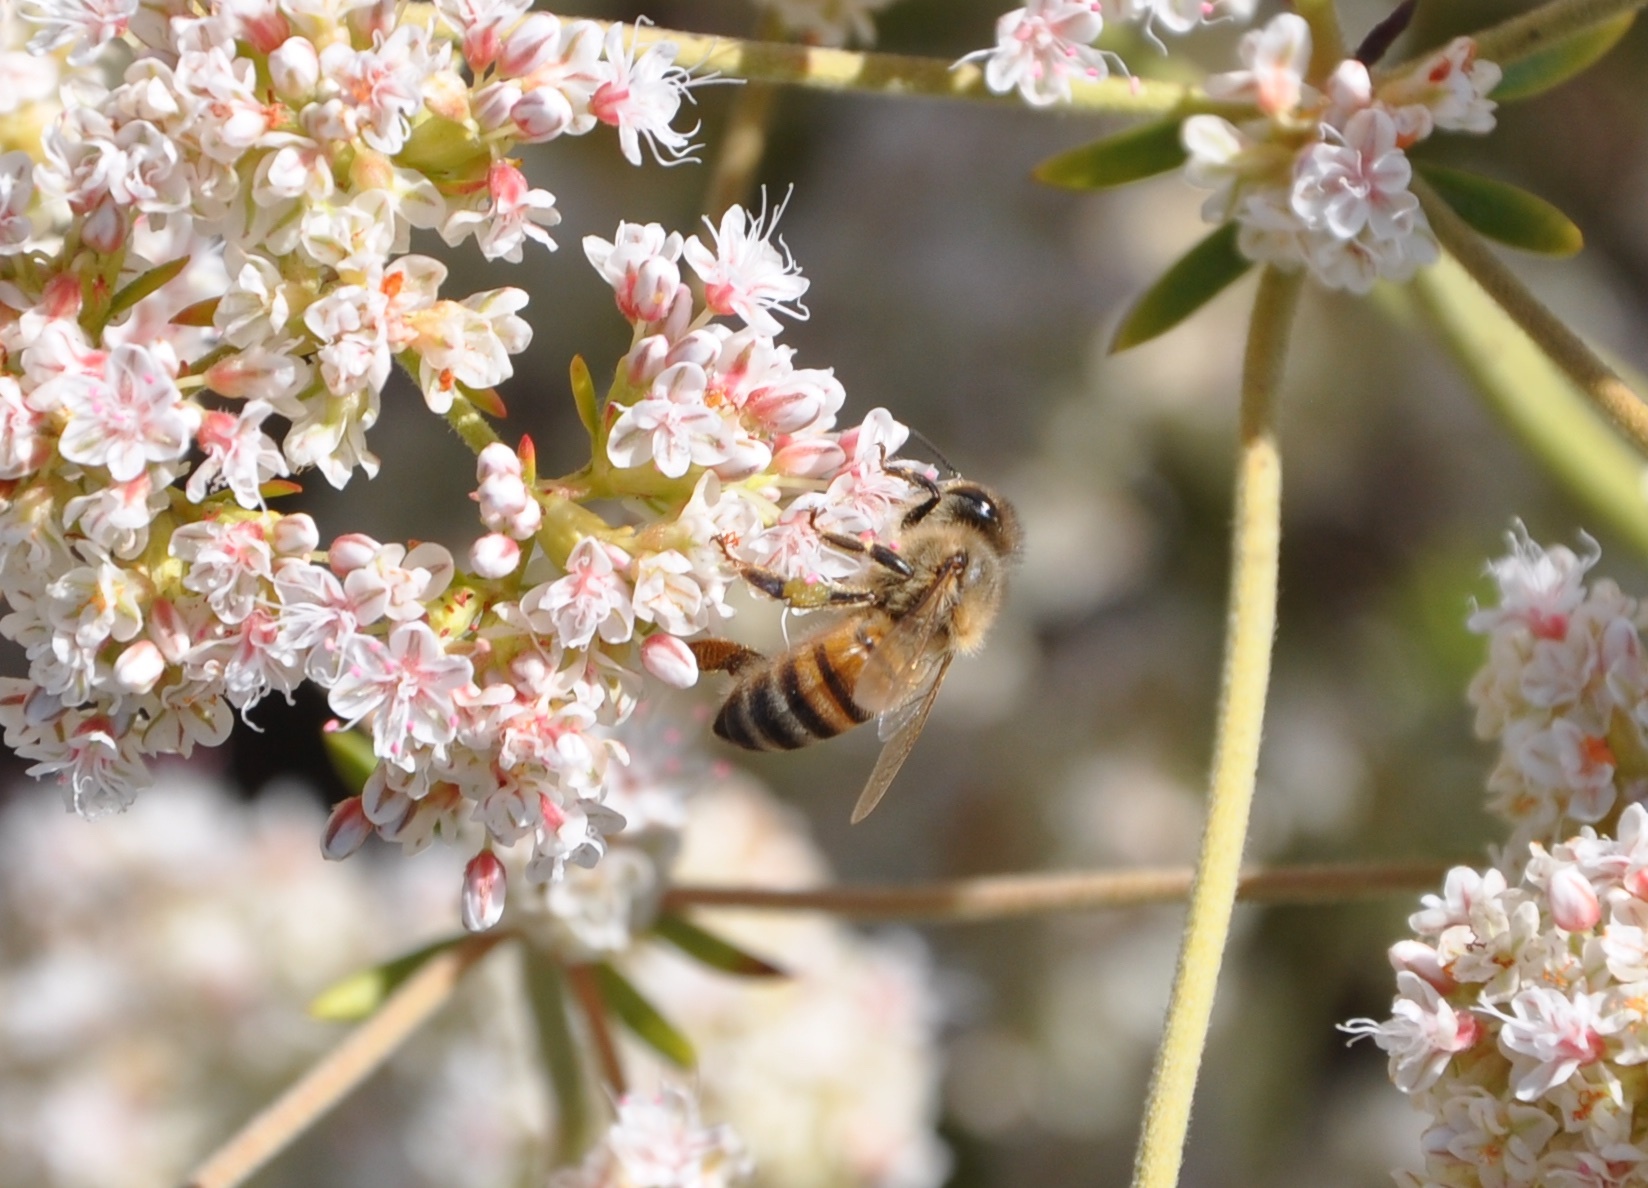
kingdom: Animalia
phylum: Arthropoda
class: Insecta
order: Hymenoptera
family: Apidae
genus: Apis
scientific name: Apis mellifera
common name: Honey bee
